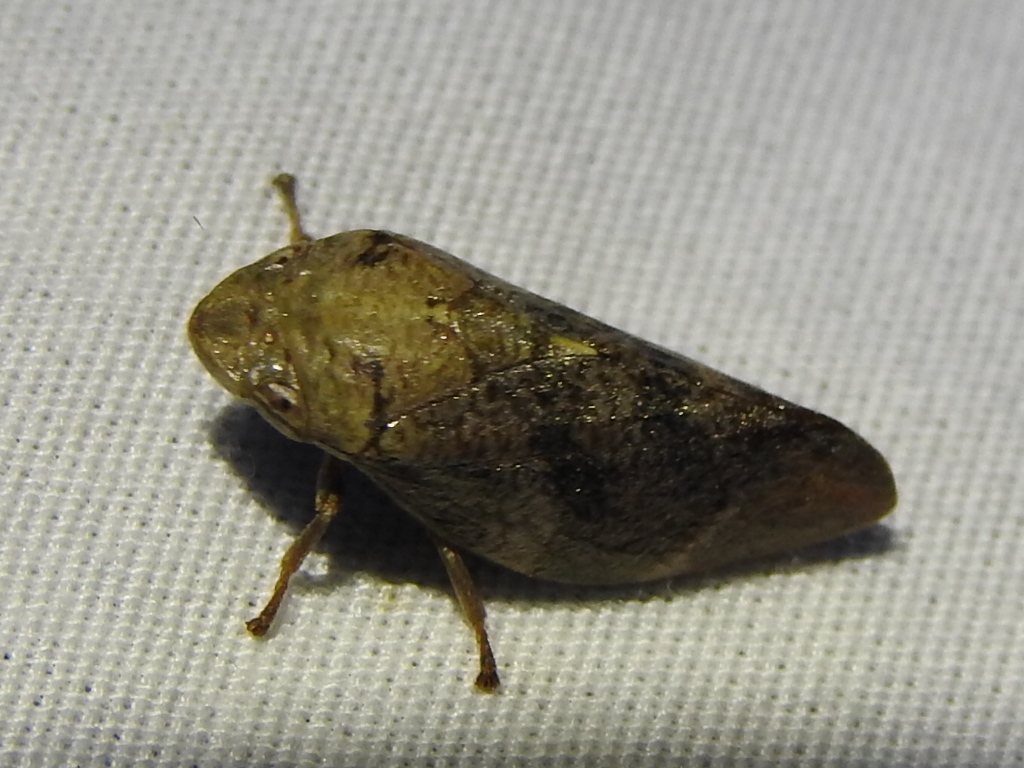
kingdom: Animalia
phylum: Arthropoda
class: Insecta
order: Hemiptera
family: Aphrophoridae
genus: Cephisus
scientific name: Cephisus siccifolius
